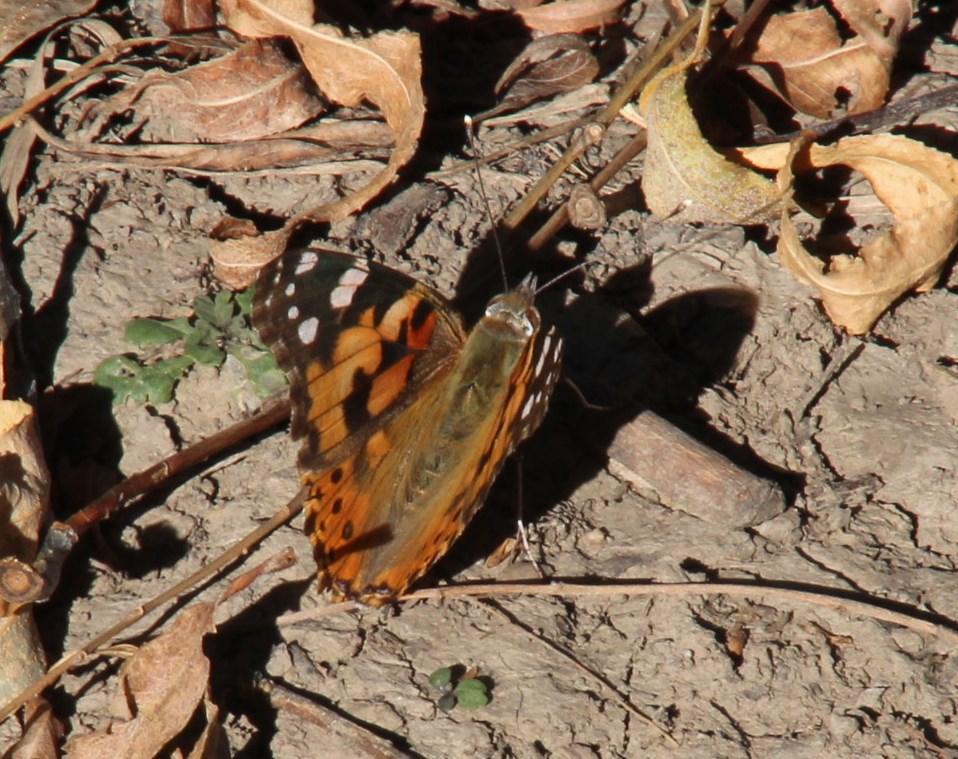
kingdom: Animalia
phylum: Arthropoda
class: Insecta
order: Lepidoptera
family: Nymphalidae
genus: Vanessa
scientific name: Vanessa cardui
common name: Painted lady
